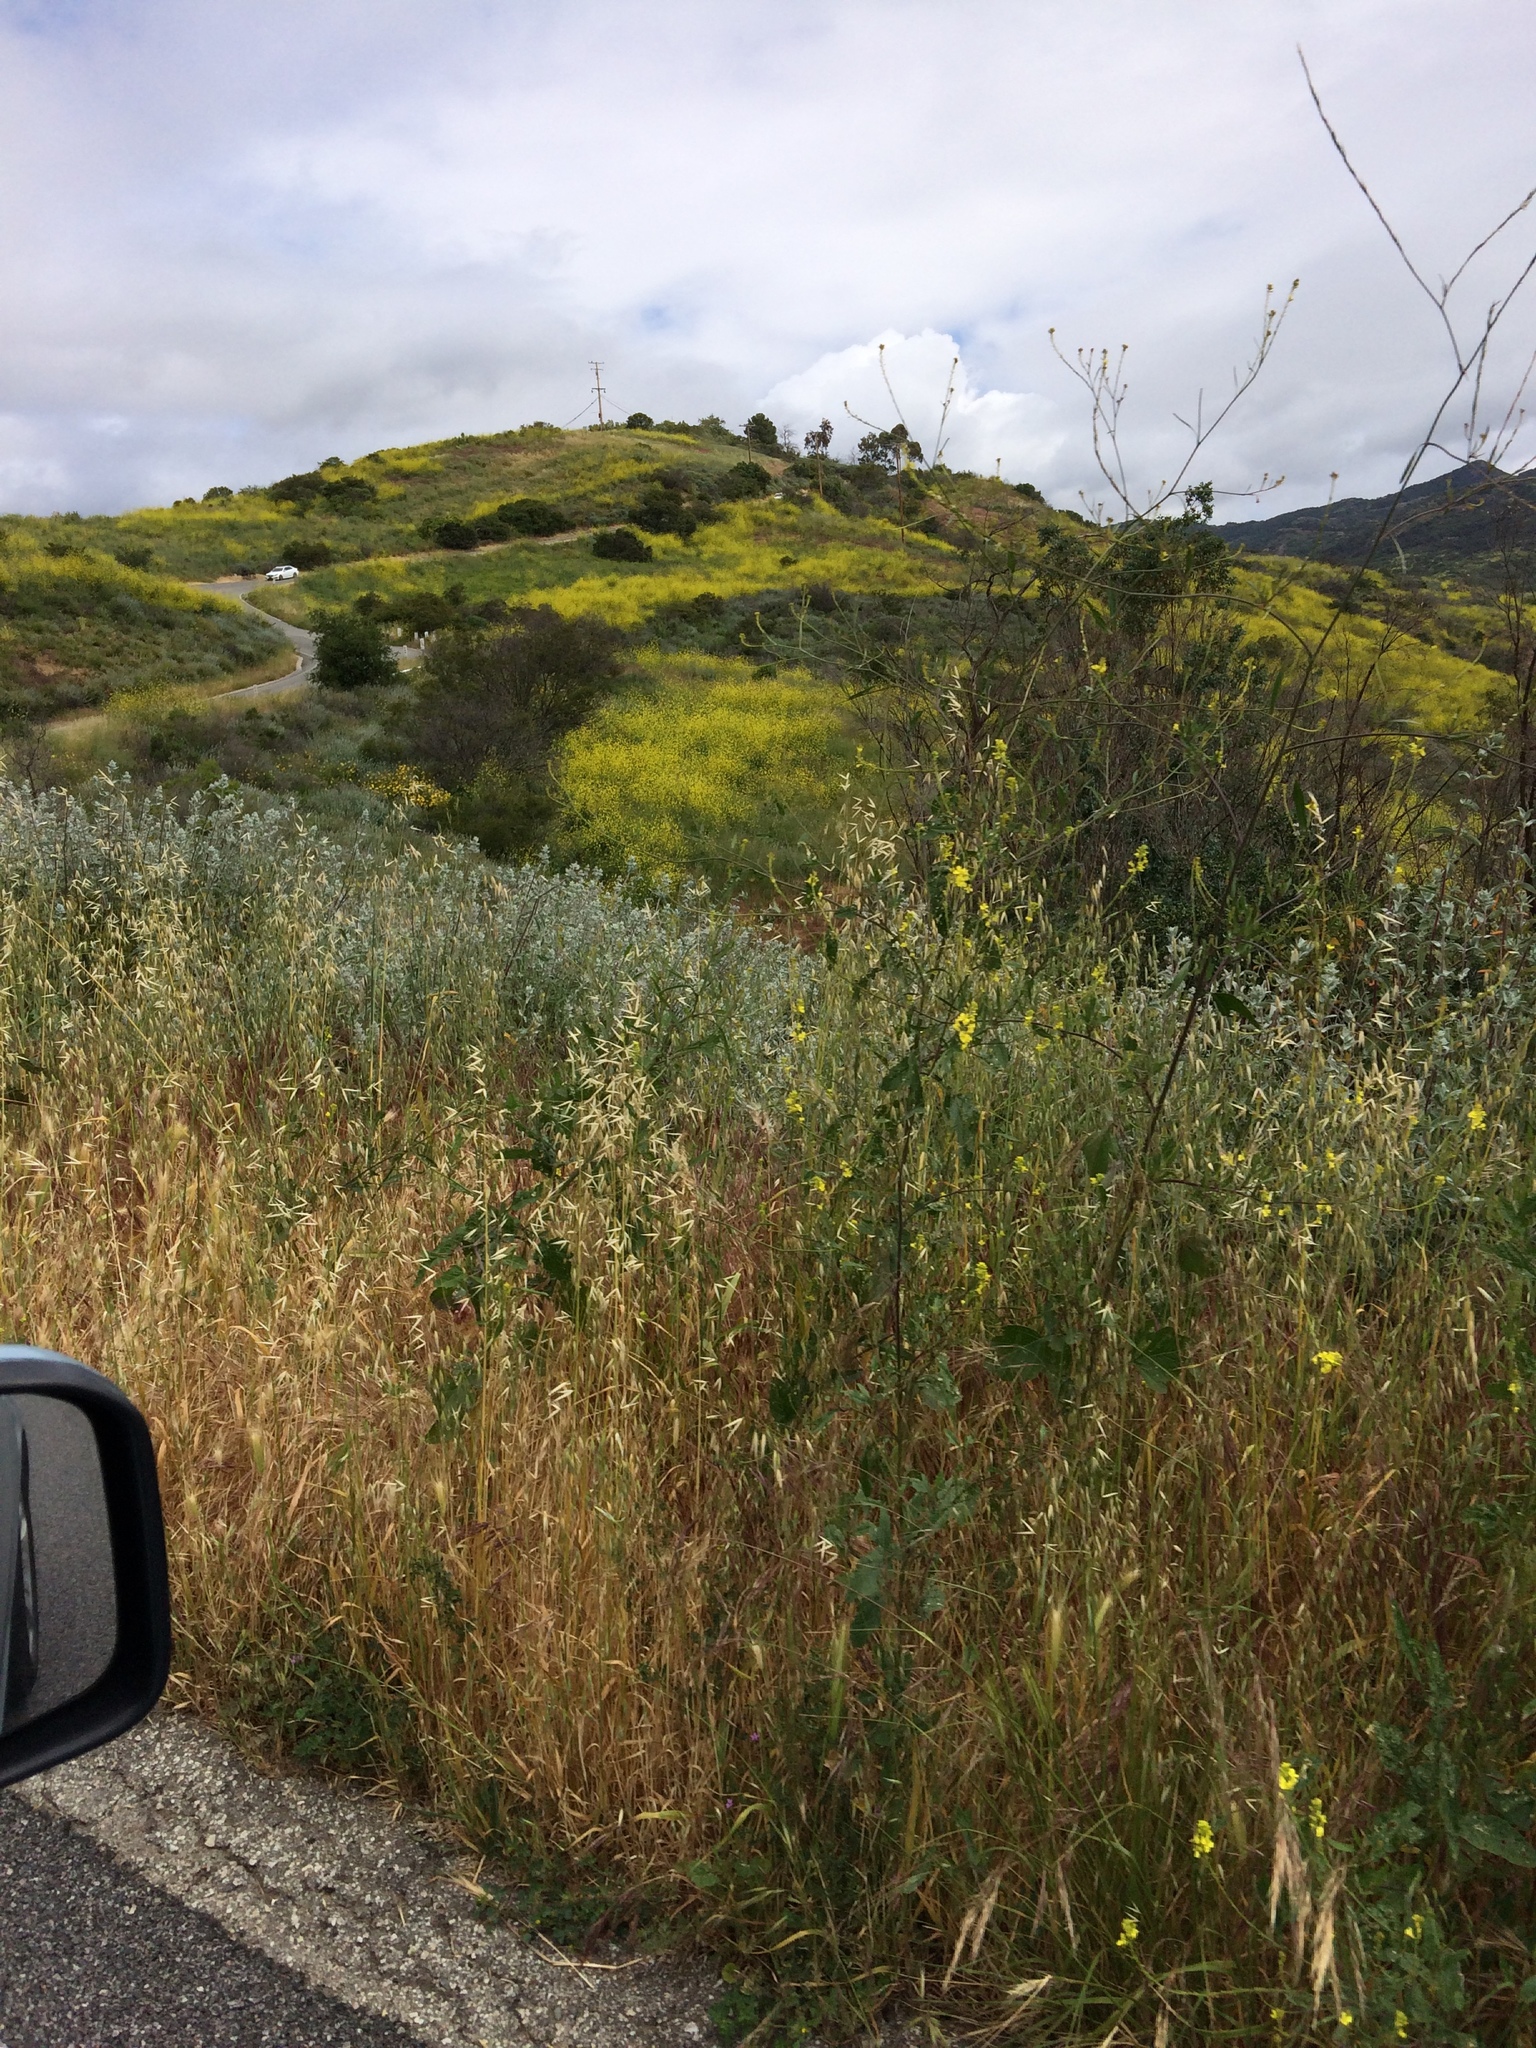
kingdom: Plantae
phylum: Tracheophyta
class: Magnoliopsida
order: Brassicales
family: Brassicaceae
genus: Brassica
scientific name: Brassica nigra
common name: Black mustard
